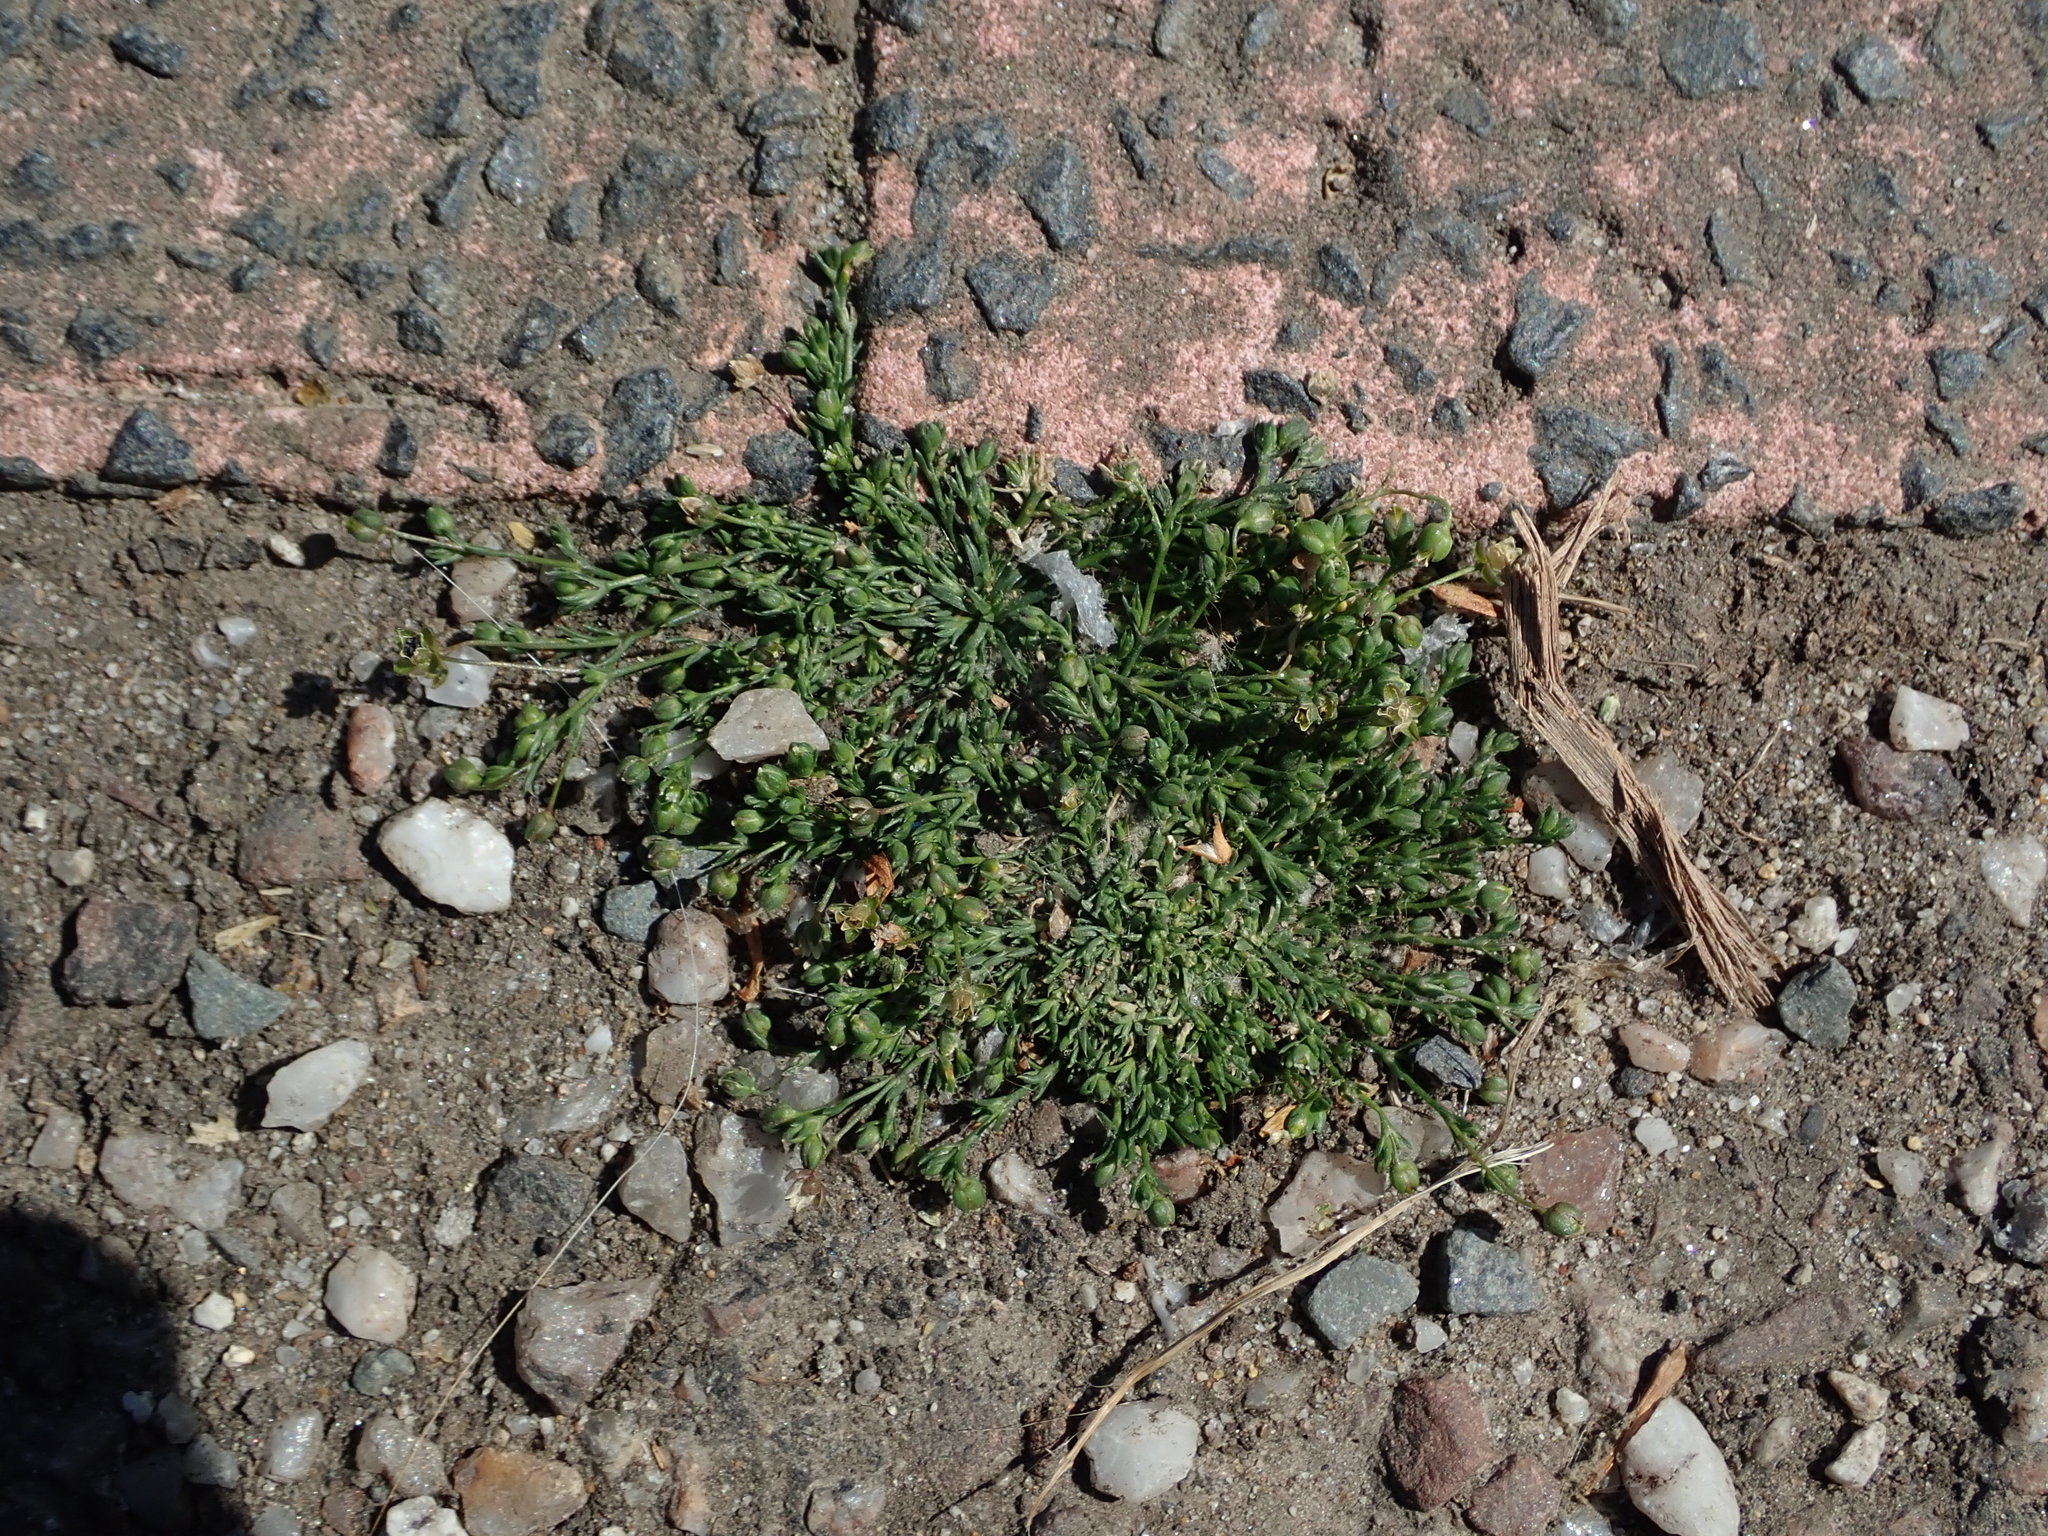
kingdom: Plantae
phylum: Tracheophyta
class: Magnoliopsida
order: Caryophyllales
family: Caryophyllaceae
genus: Sagina
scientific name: Sagina procumbens
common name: Procumbent pearlwort
